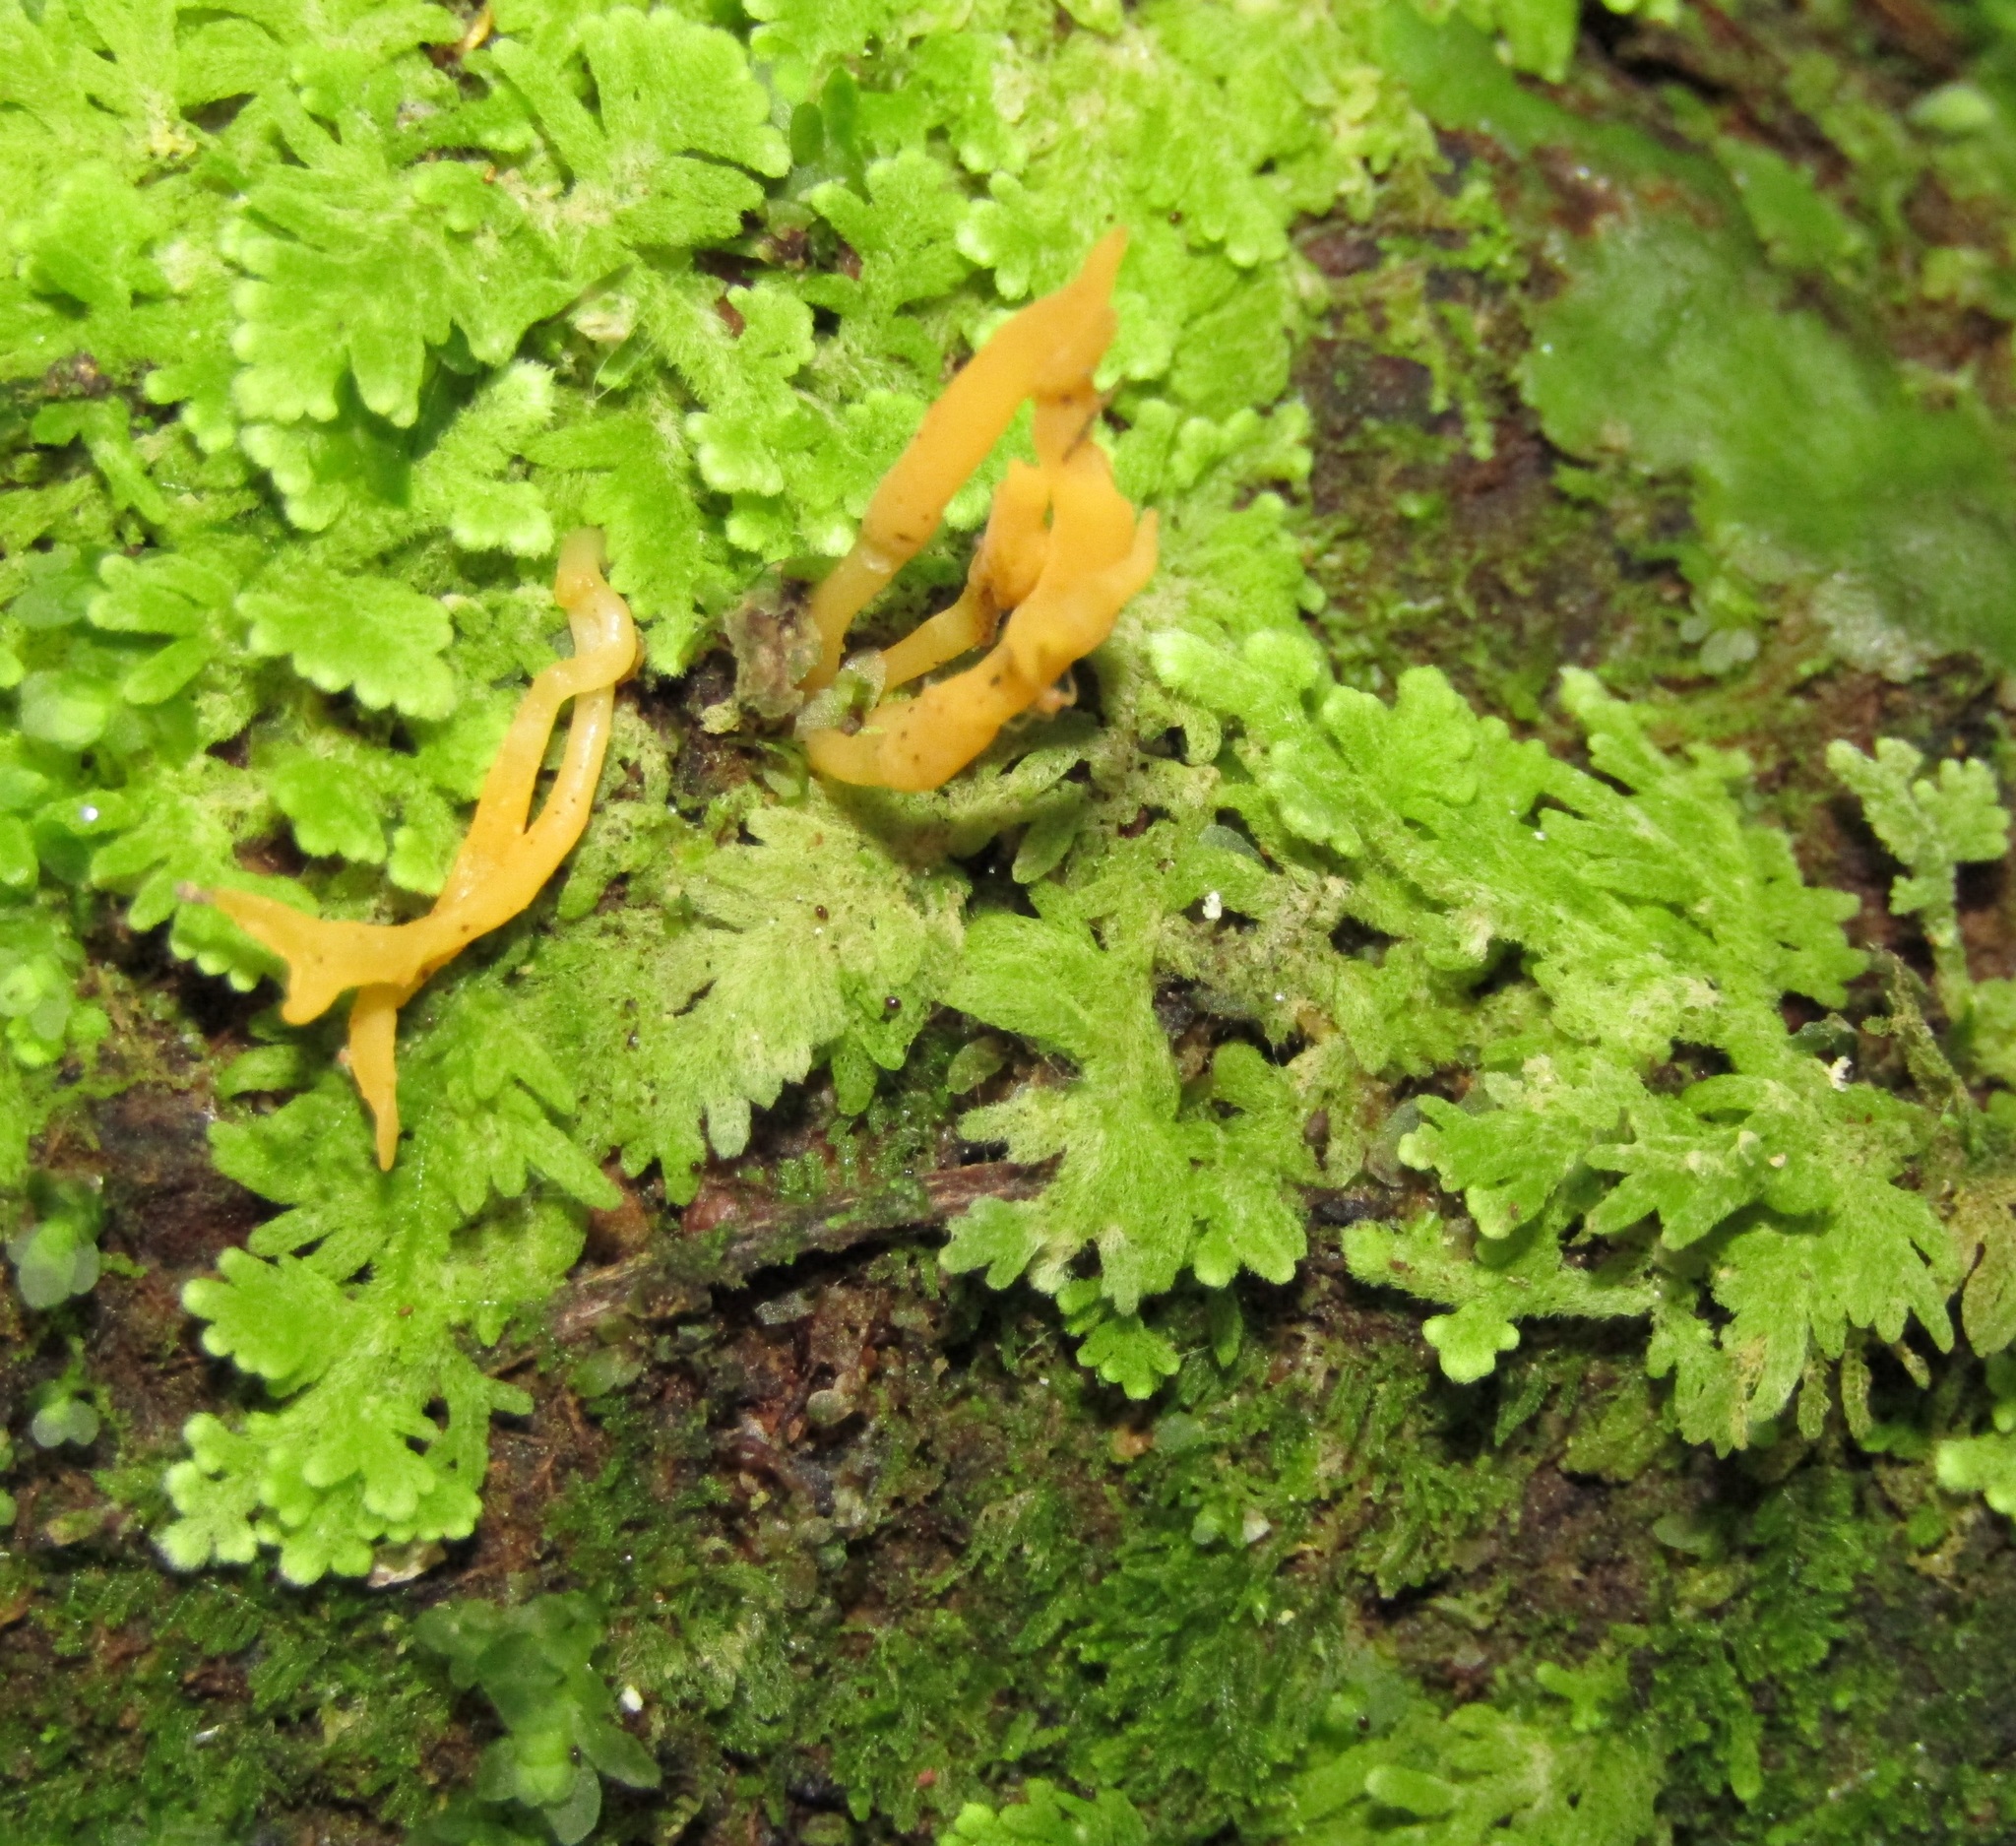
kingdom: Plantae
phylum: Marchantiophyta
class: Jungermanniopsida
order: Jungermanniales
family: Trichocoleaceae
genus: Trichocolea
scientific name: Trichocolea mollissima
